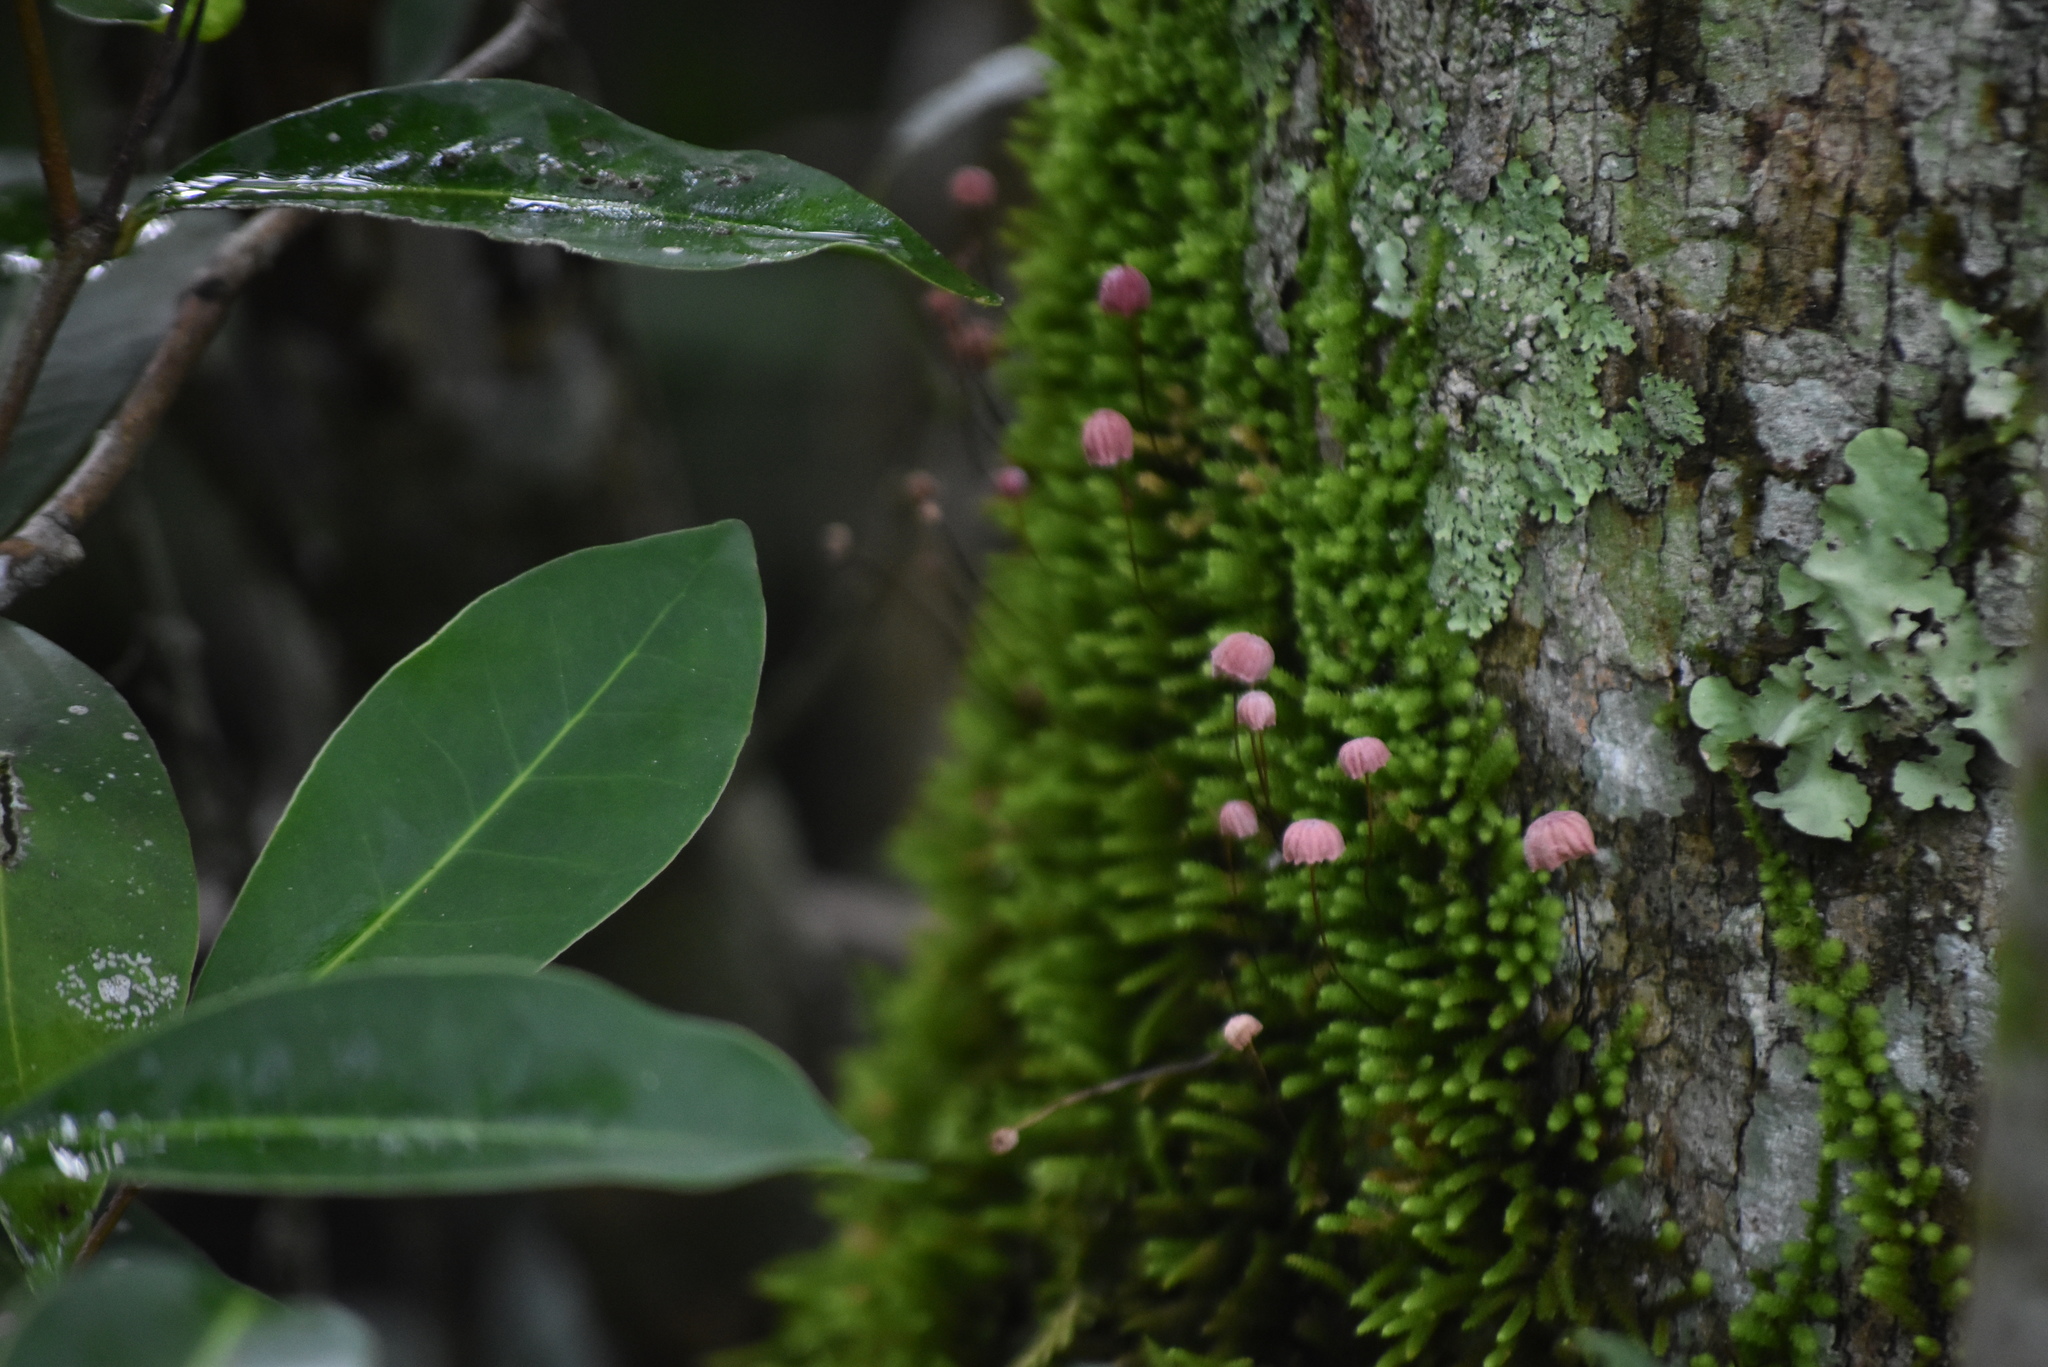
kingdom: Fungi
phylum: Basidiomycota
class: Agaricomycetes
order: Agaricales
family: Marasmiaceae
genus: Marasmius
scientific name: Marasmius haematocephalus
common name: Purple pinwheel
